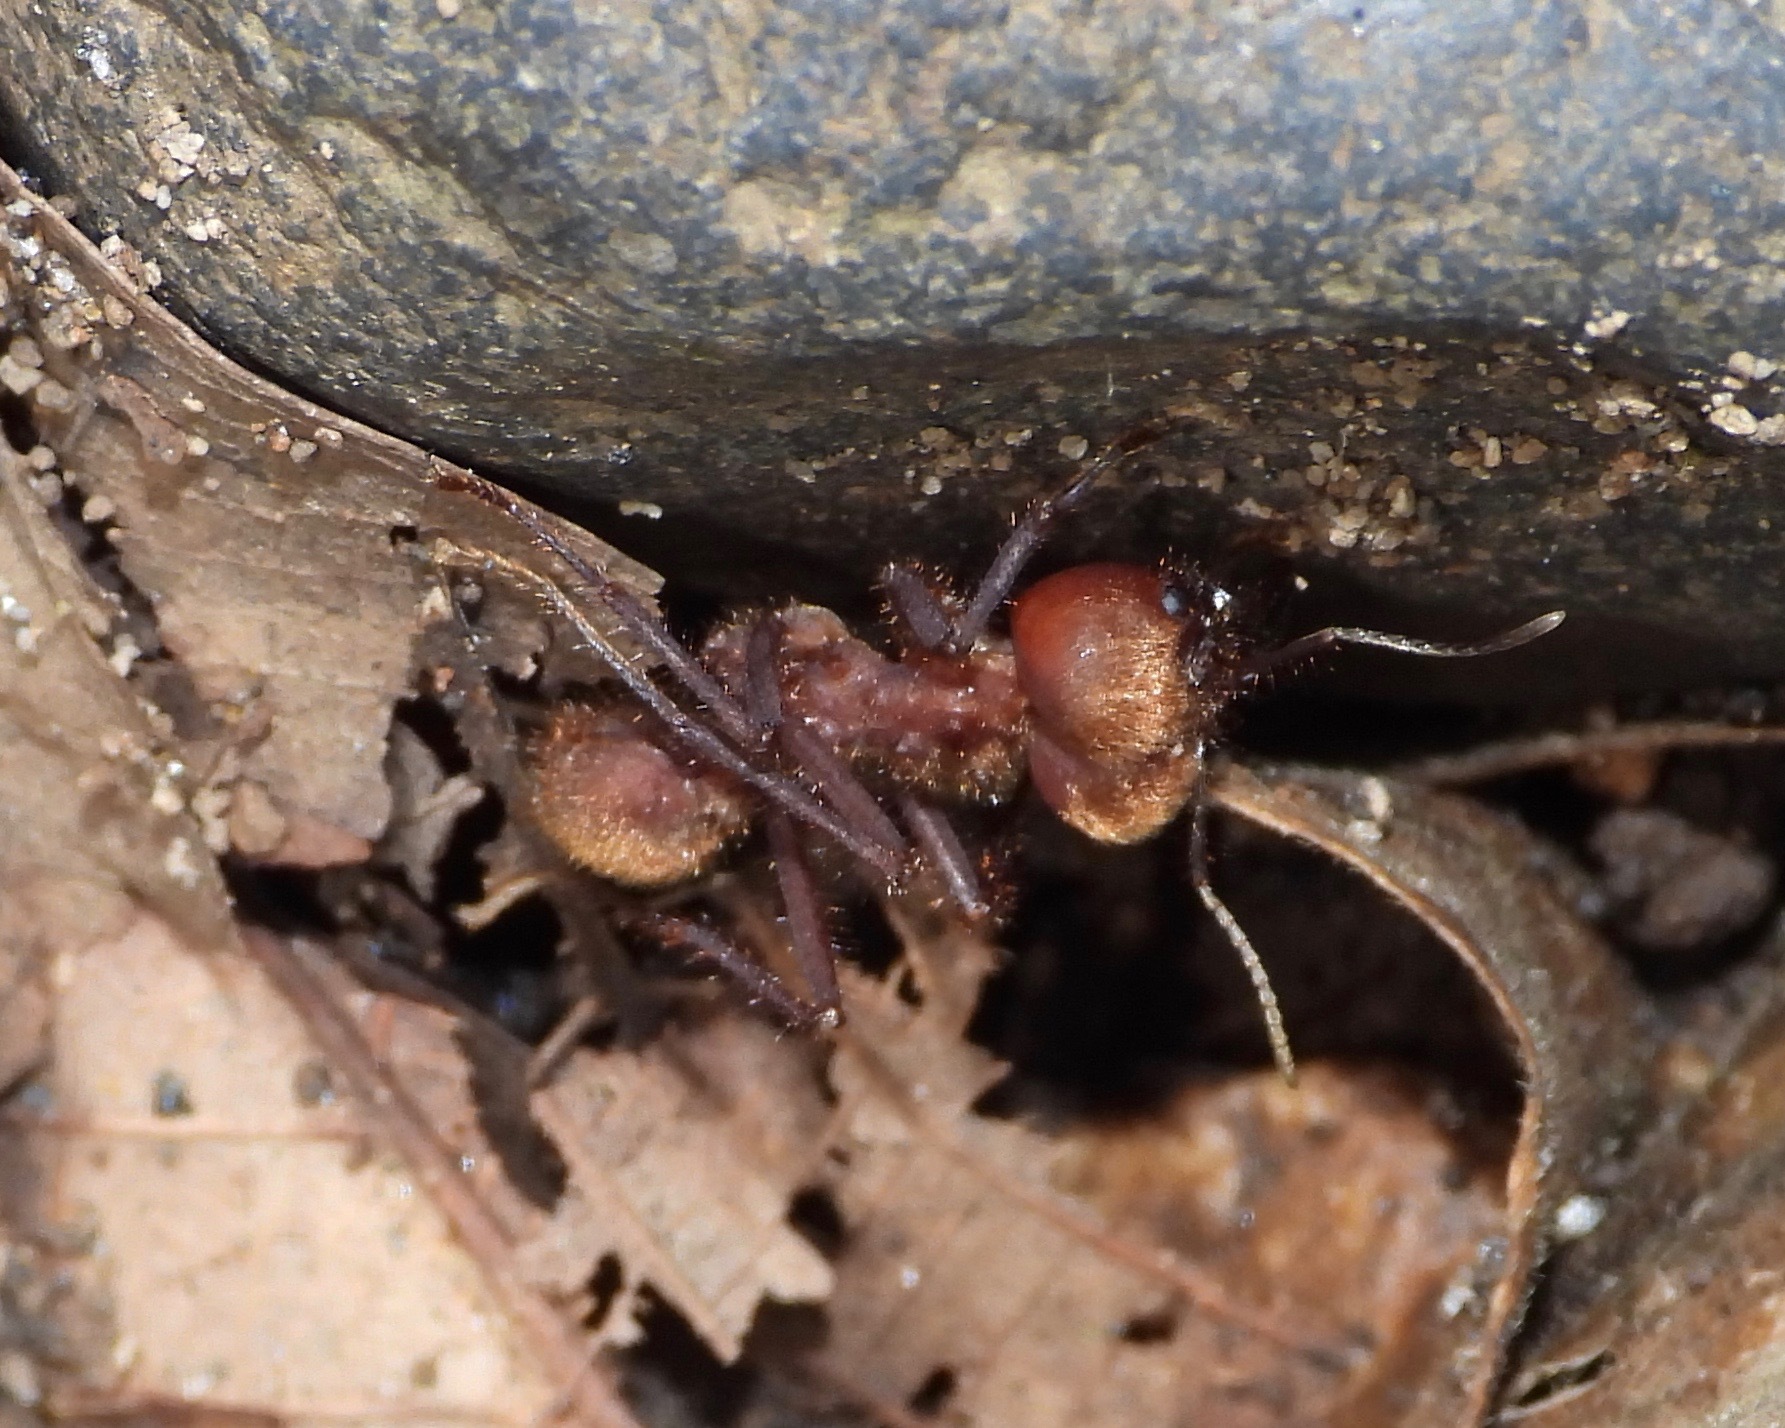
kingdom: Animalia
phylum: Arthropoda
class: Insecta
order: Hymenoptera
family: Formicidae
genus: Atta
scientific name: Atta cephalotes
